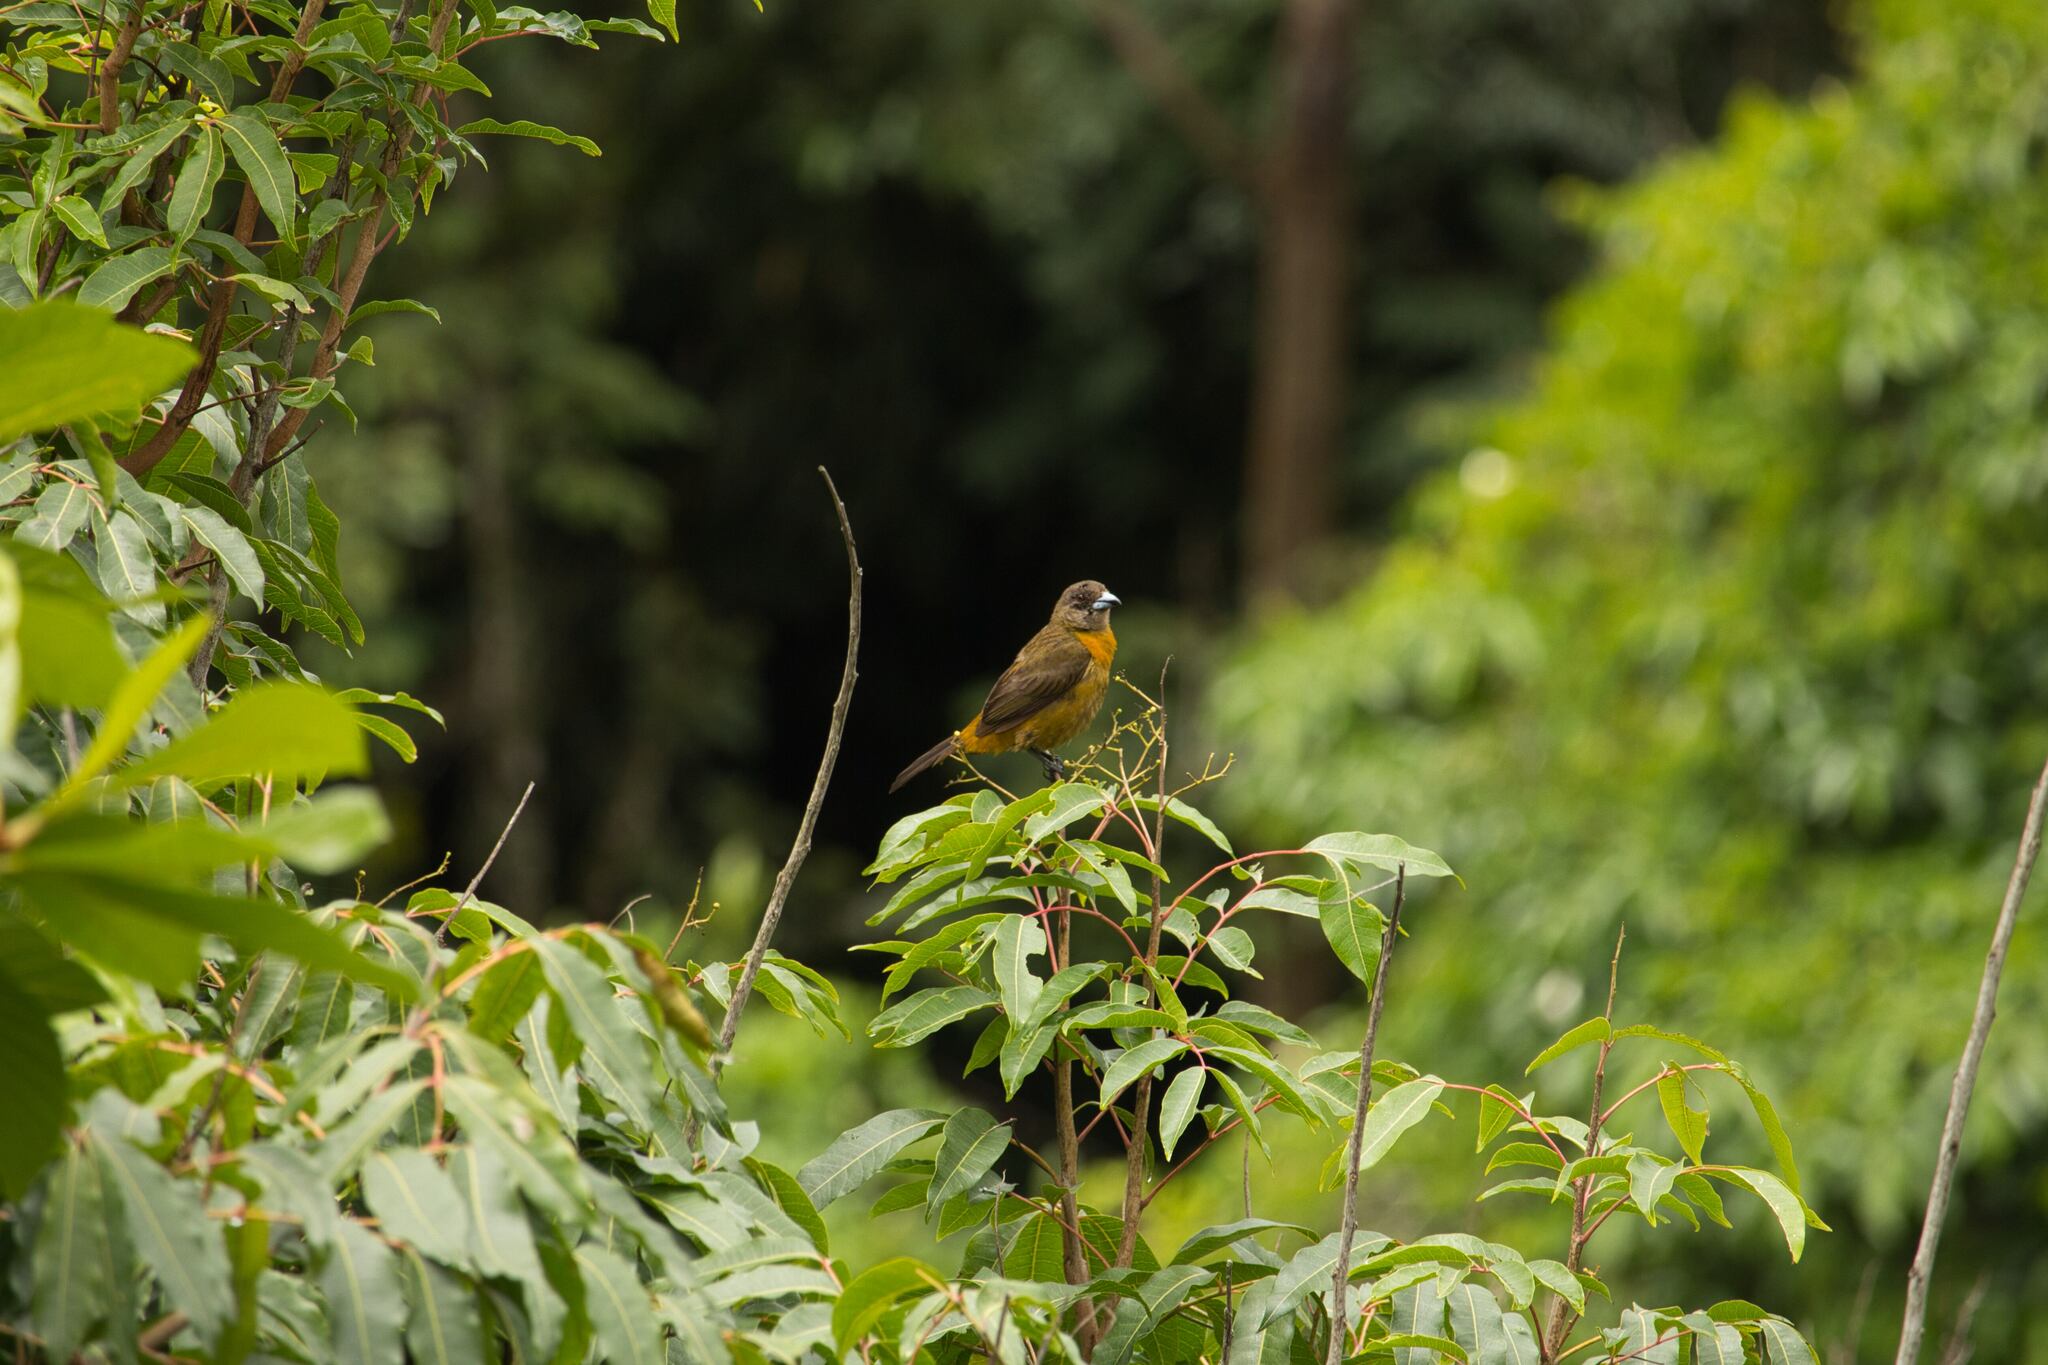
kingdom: Animalia
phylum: Chordata
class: Aves
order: Passeriformes
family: Thraupidae
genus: Ramphocelus
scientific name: Ramphocelus passerinii
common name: Passerini's tanager
